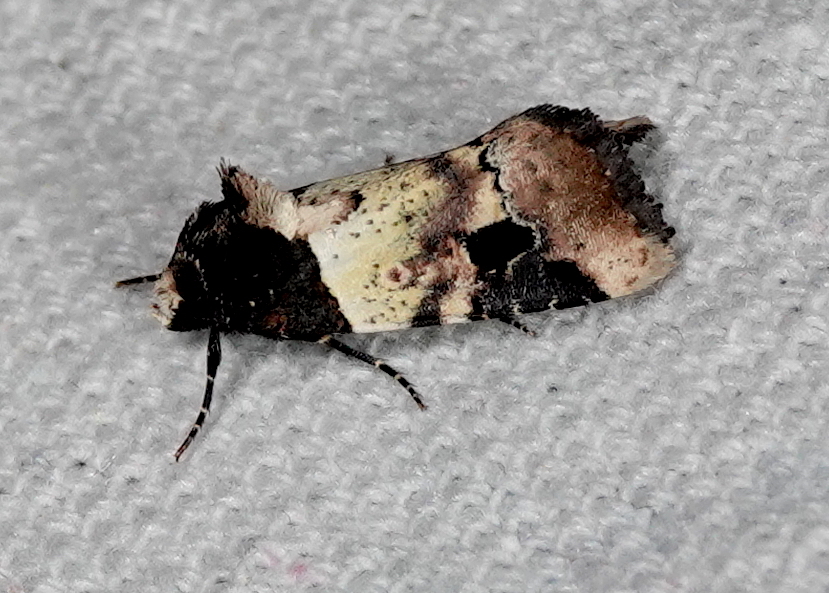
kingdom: Animalia
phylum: Arthropoda
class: Insecta
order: Lepidoptera
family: Noctuidae
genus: Bryolymnia
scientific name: Bryolymnia poasia
